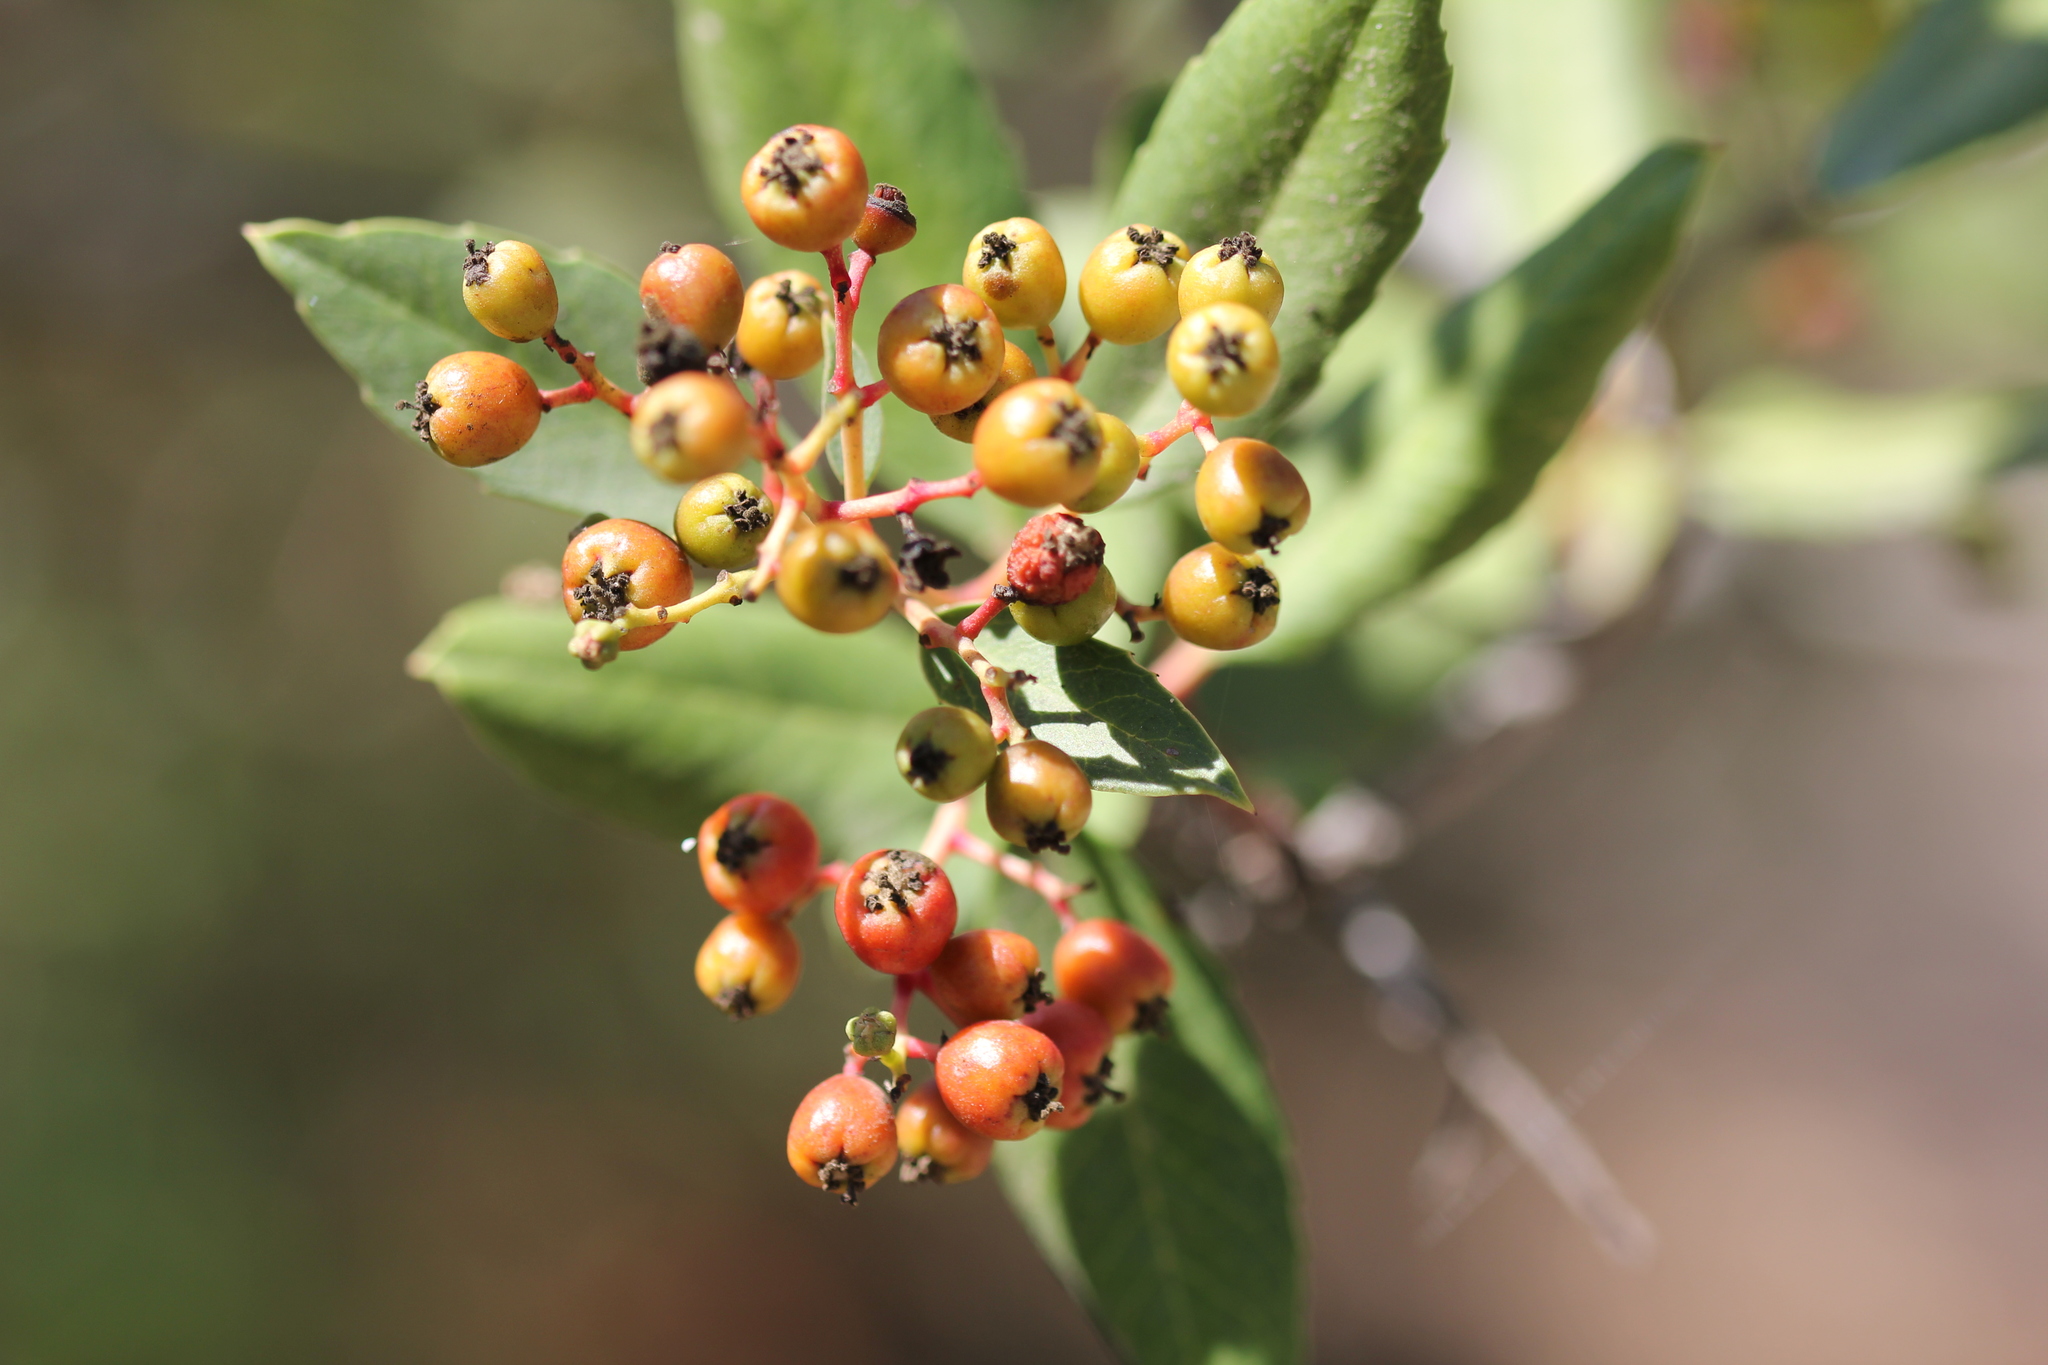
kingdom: Plantae
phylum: Tracheophyta
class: Magnoliopsida
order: Rosales
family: Rosaceae
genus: Heteromeles
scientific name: Heteromeles arbutifolia
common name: California-holly
